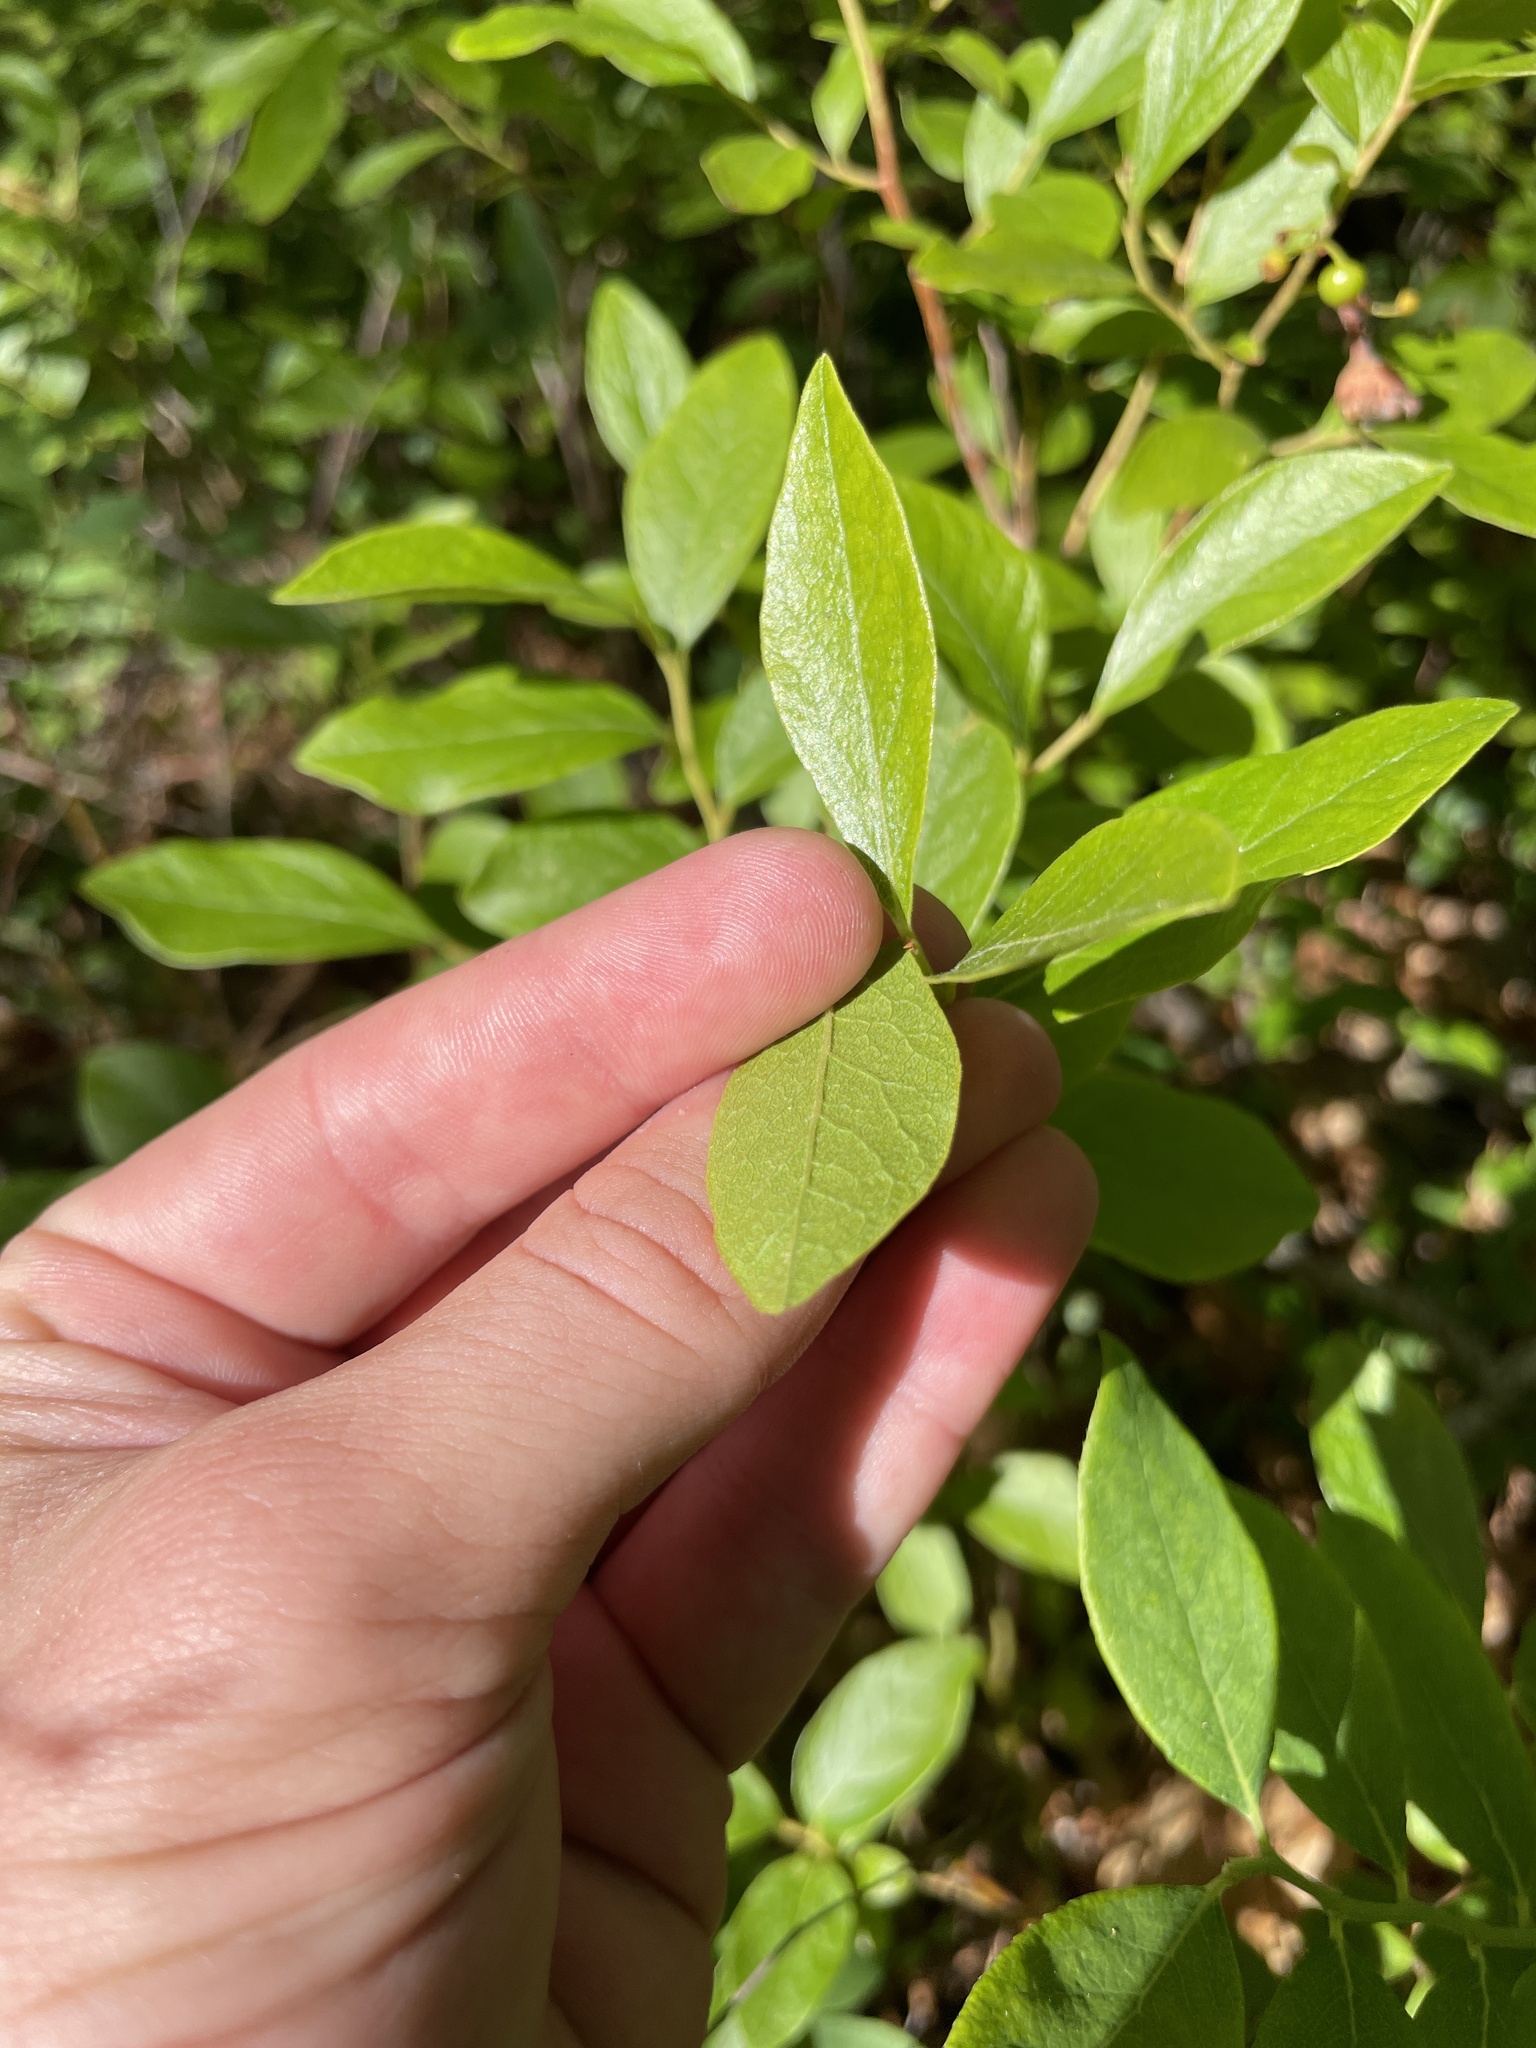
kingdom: Plantae
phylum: Tracheophyta
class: Magnoliopsida
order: Ericales
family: Ericaceae
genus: Gaylussacia
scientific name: Gaylussacia baccata
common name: Black huckleberry
